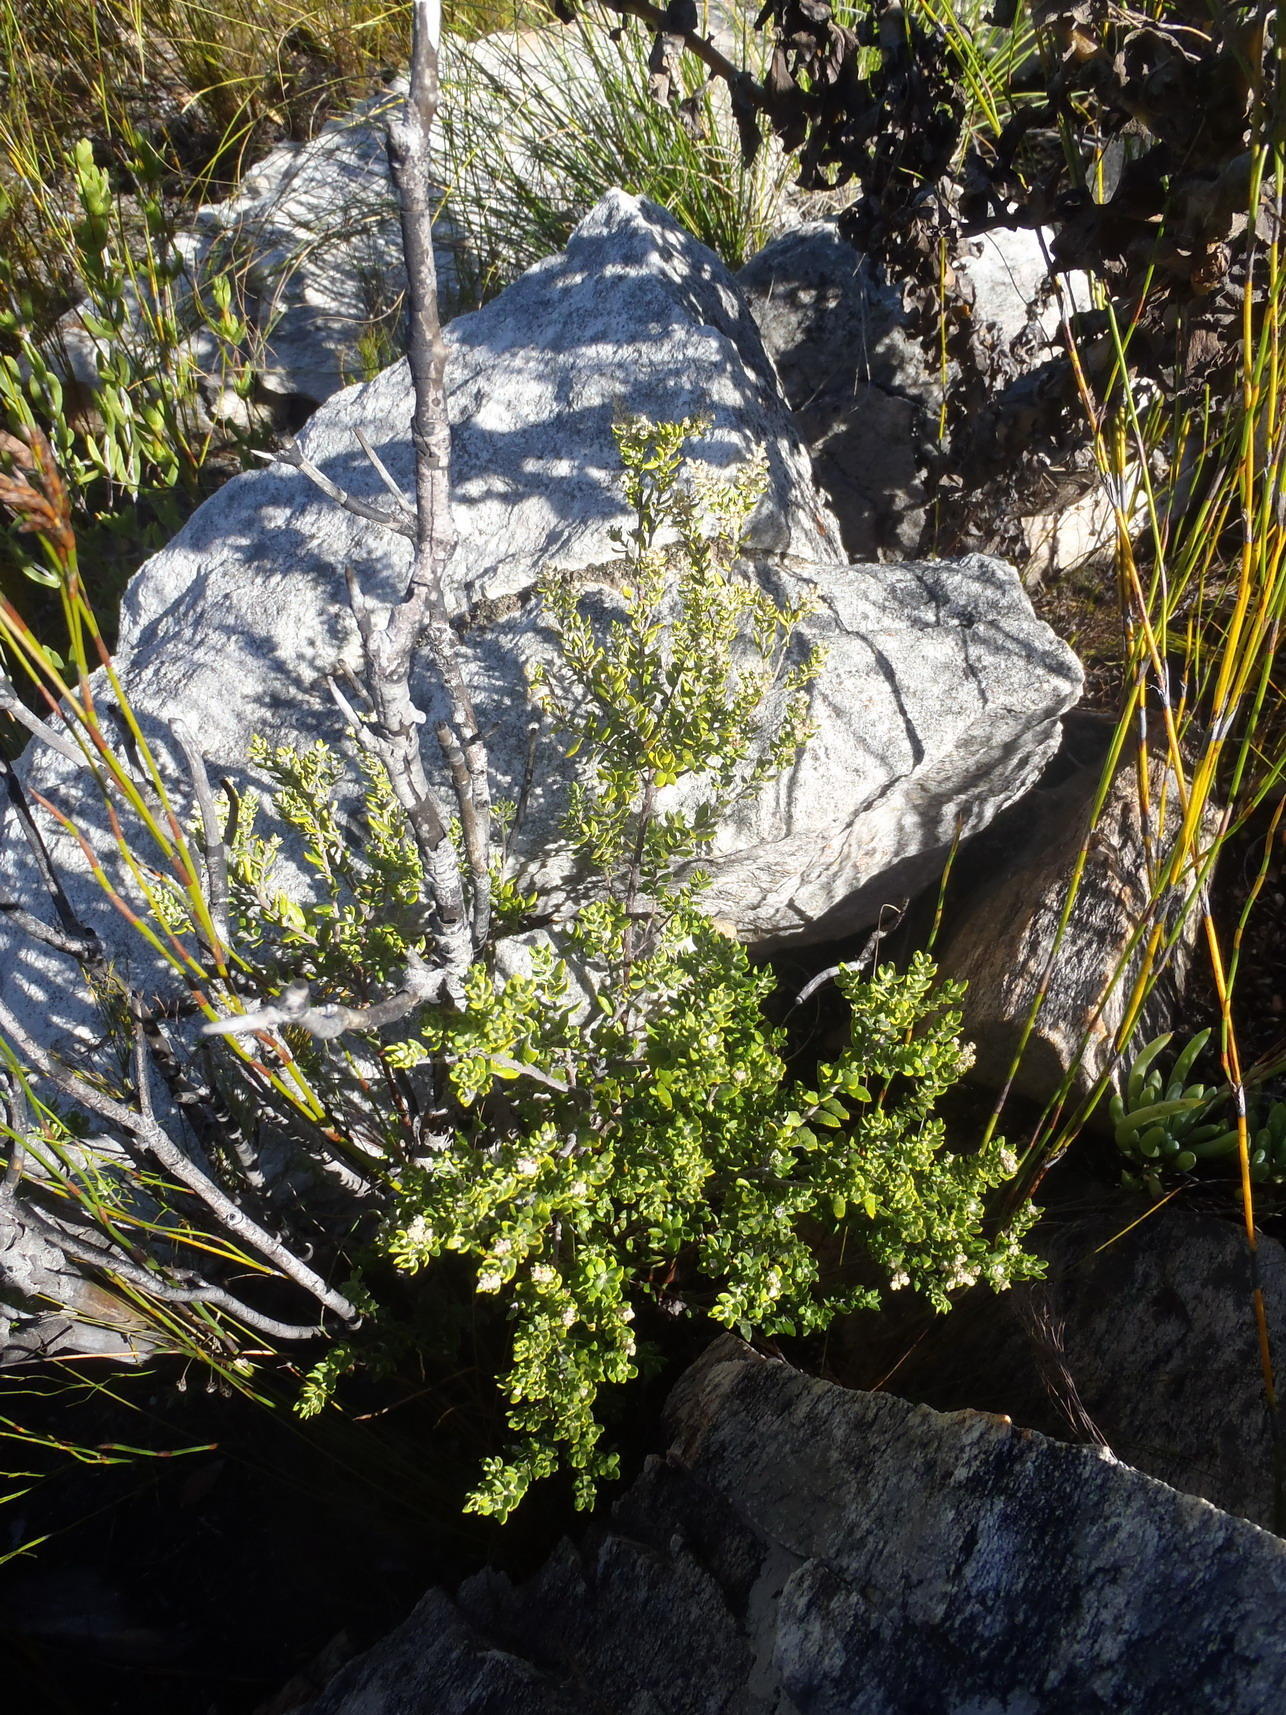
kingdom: Plantae
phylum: Tracheophyta
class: Magnoliopsida
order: Rosales
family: Rhamnaceae
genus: Phylica
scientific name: Phylica paniculata
